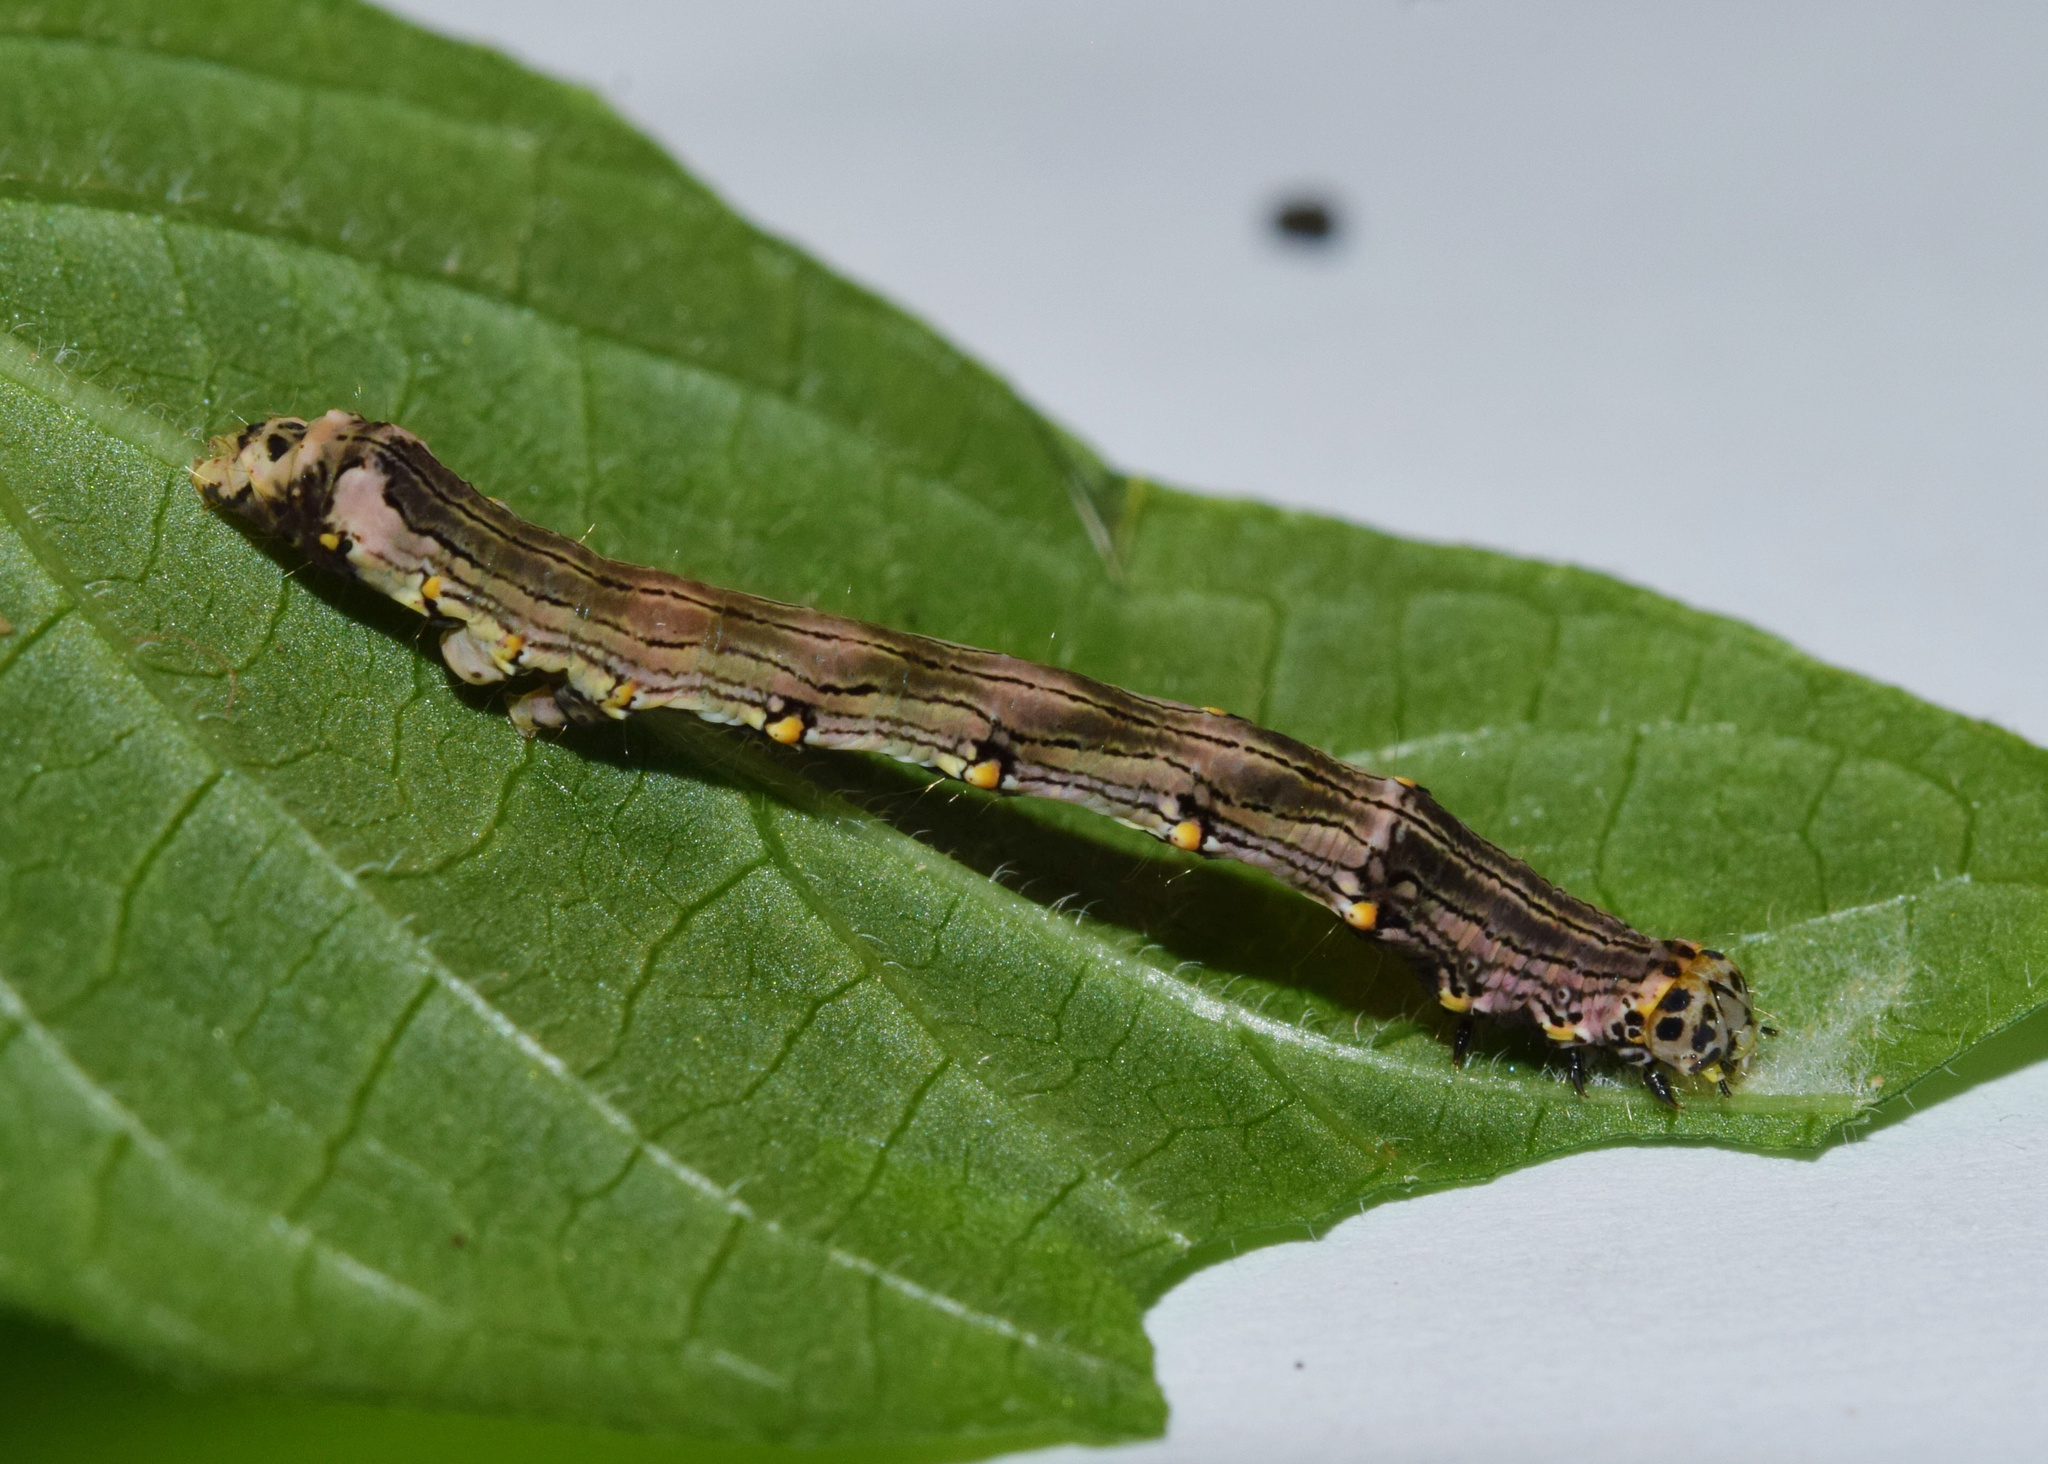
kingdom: Animalia
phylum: Arthropoda
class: Insecta
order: Lepidoptera
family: Noctuidae
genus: Ozarba
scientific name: Ozarba abscissa
